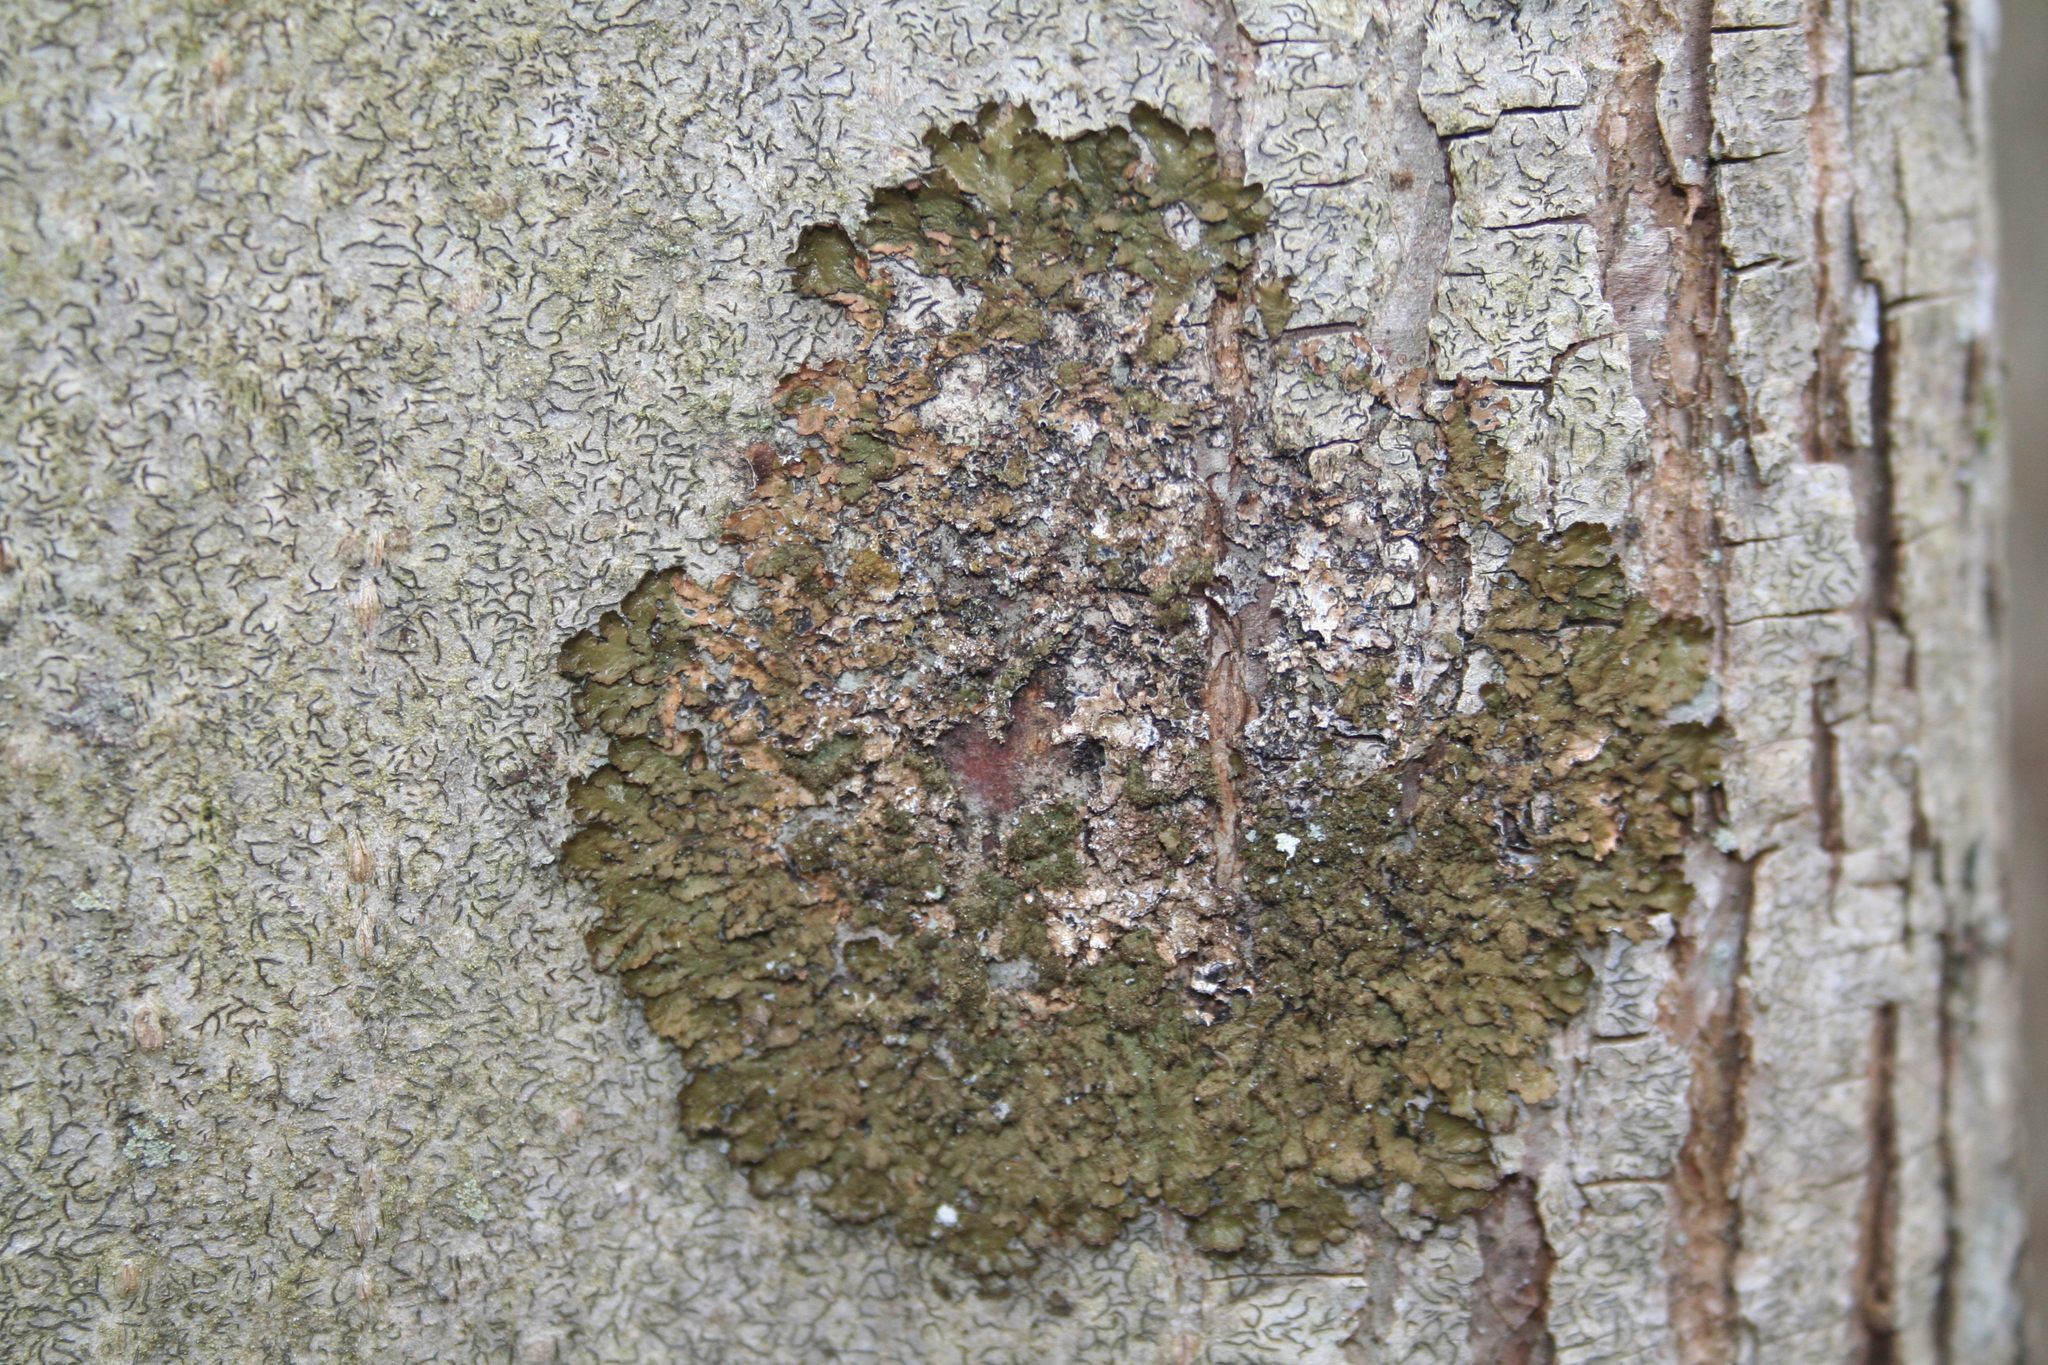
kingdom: Fungi
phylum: Ascomycota
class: Lecanoromycetes
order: Lecanorales
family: Parmeliaceae
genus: Melanelixia
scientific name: Melanelixia glabratula
